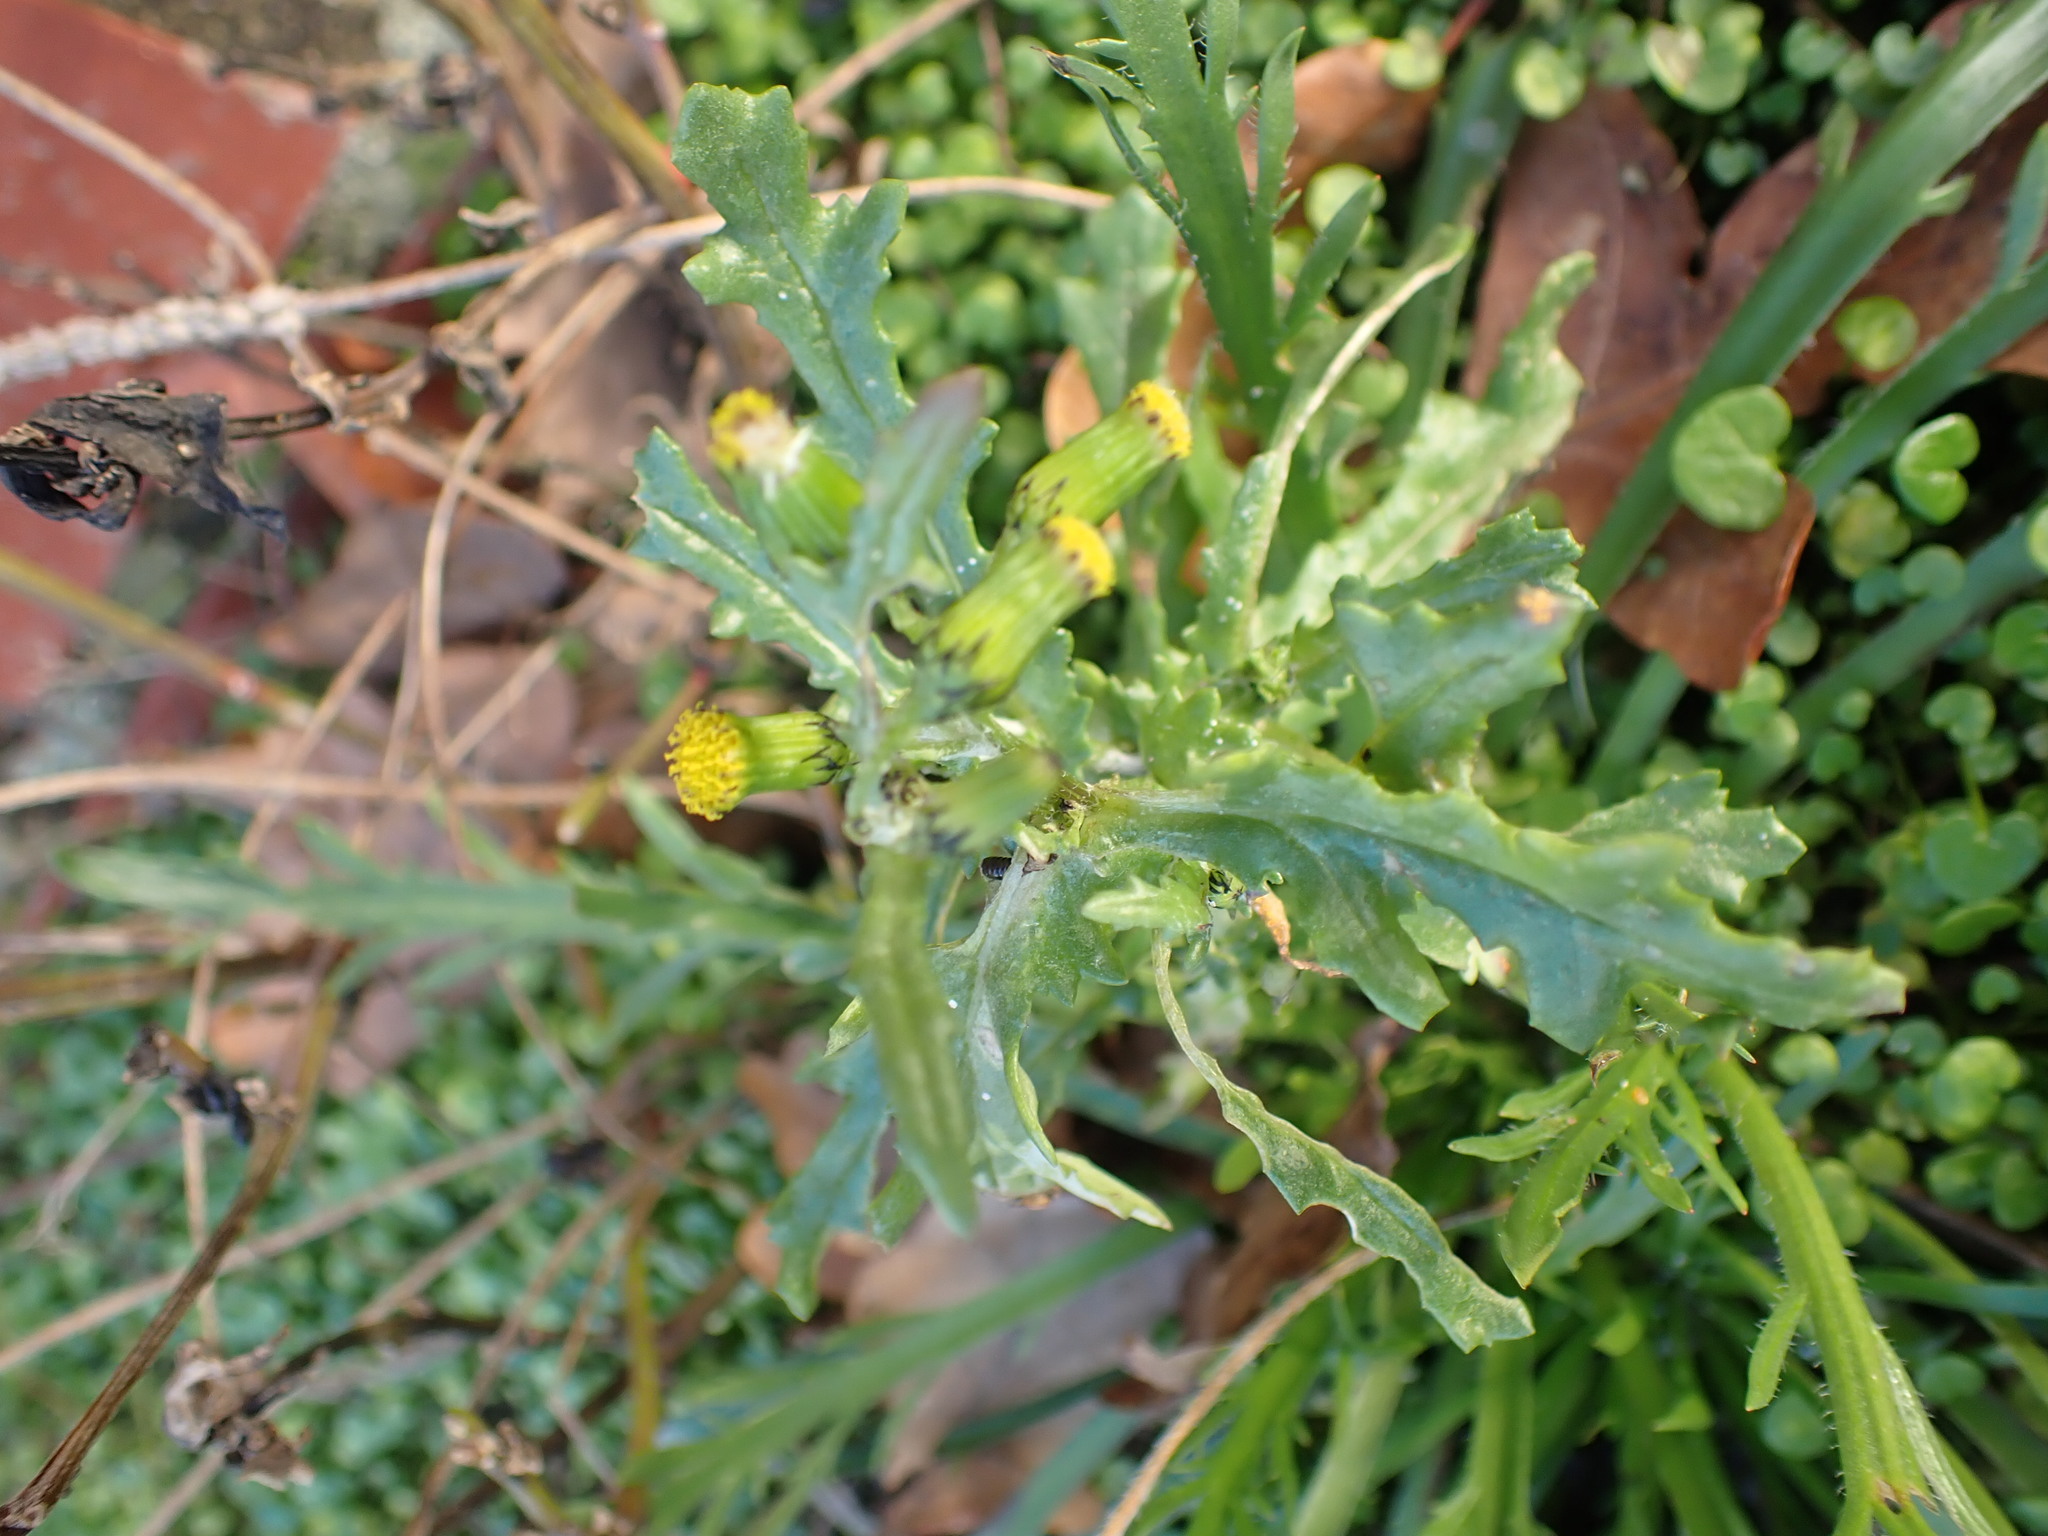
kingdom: Plantae
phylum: Tracheophyta
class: Magnoliopsida
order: Asterales
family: Asteraceae
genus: Senecio
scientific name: Senecio vulgaris
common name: Old-man-in-the-spring
